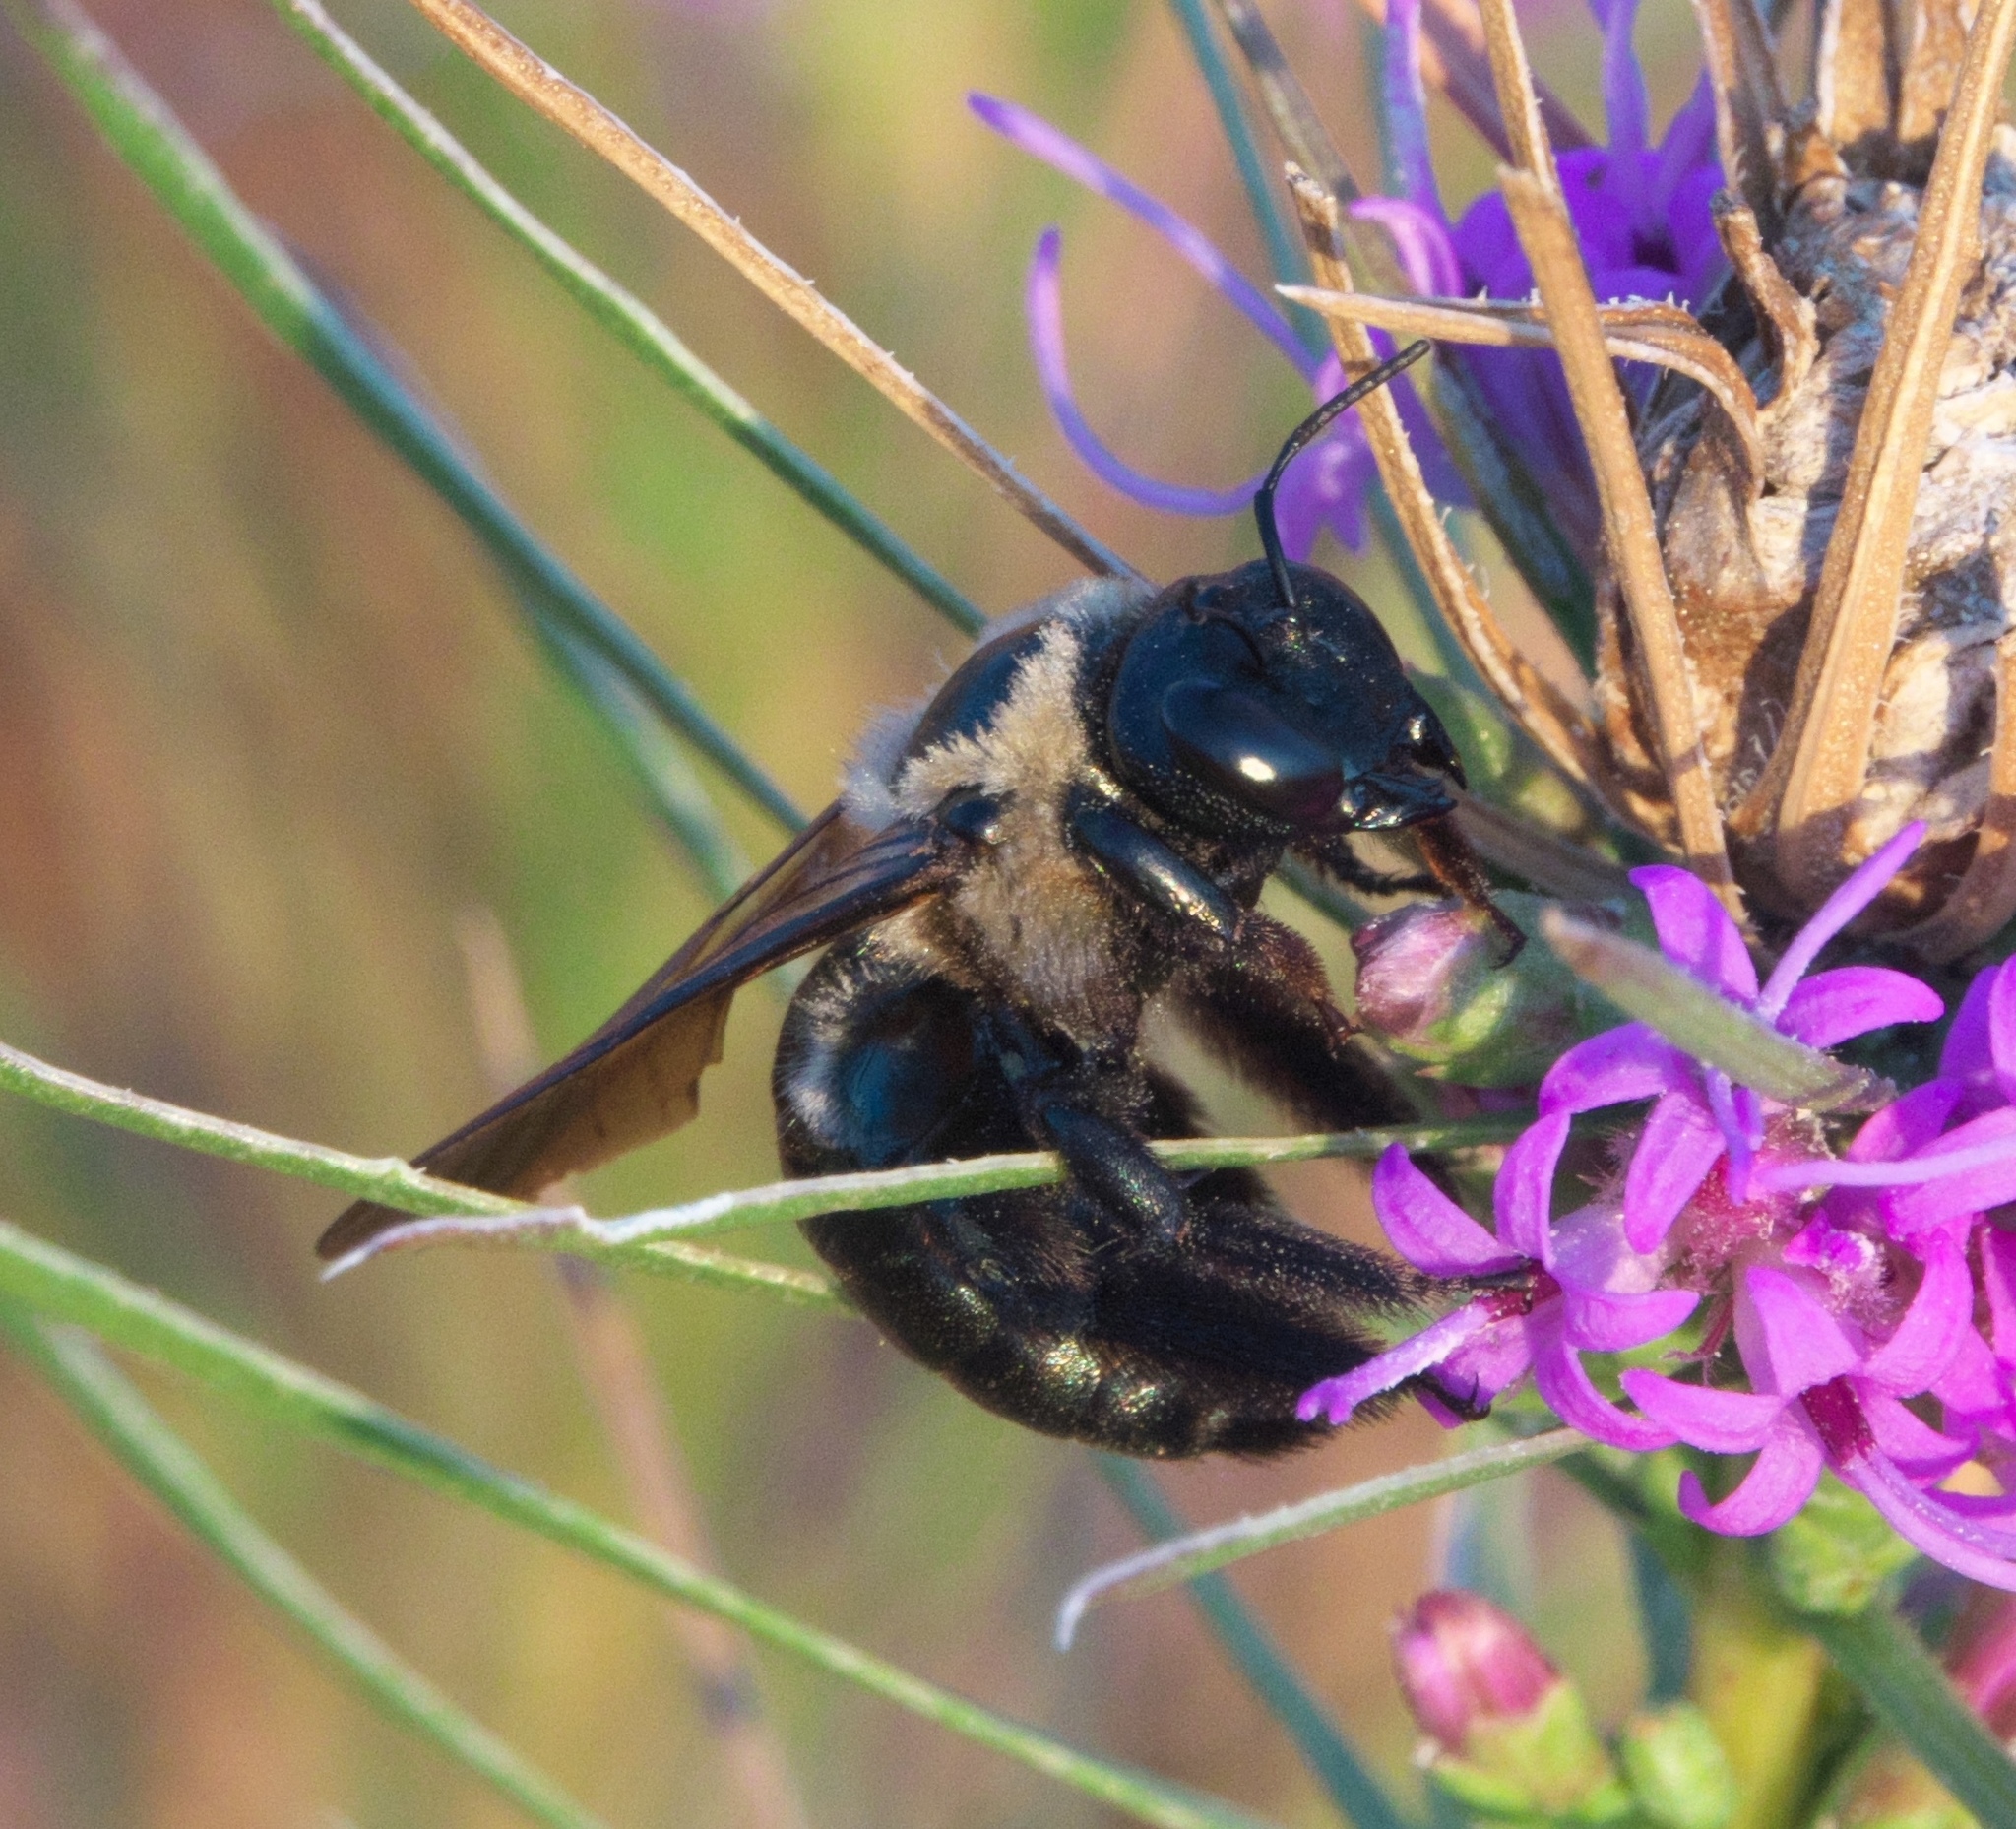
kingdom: Animalia
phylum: Arthropoda
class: Insecta
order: Hymenoptera
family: Apidae
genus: Xylocopa
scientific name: Xylocopa virginica
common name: Carpenter bee
